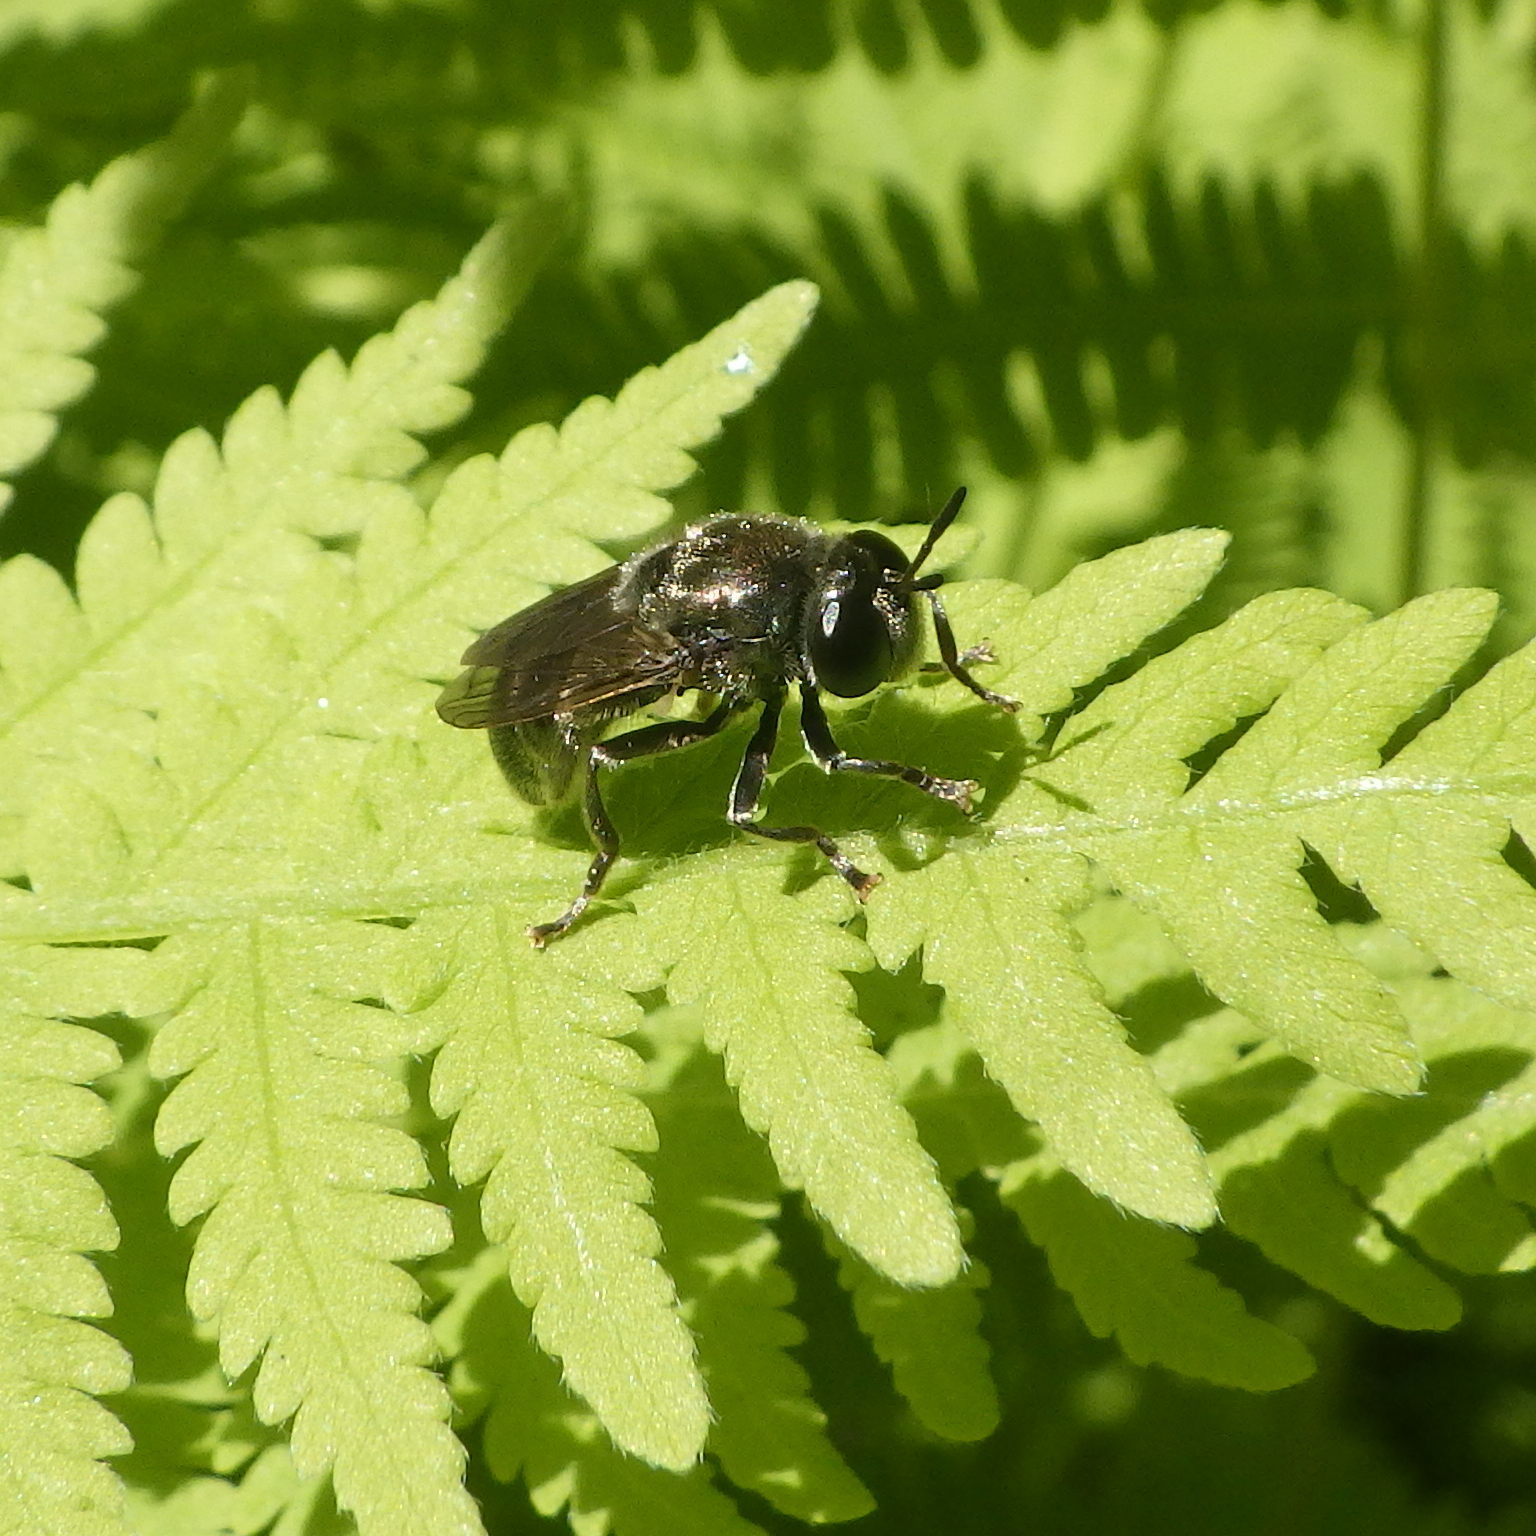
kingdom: Animalia
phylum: Arthropoda
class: Insecta
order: Diptera
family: Syrphidae
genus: Microdon
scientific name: Microdon tristis
